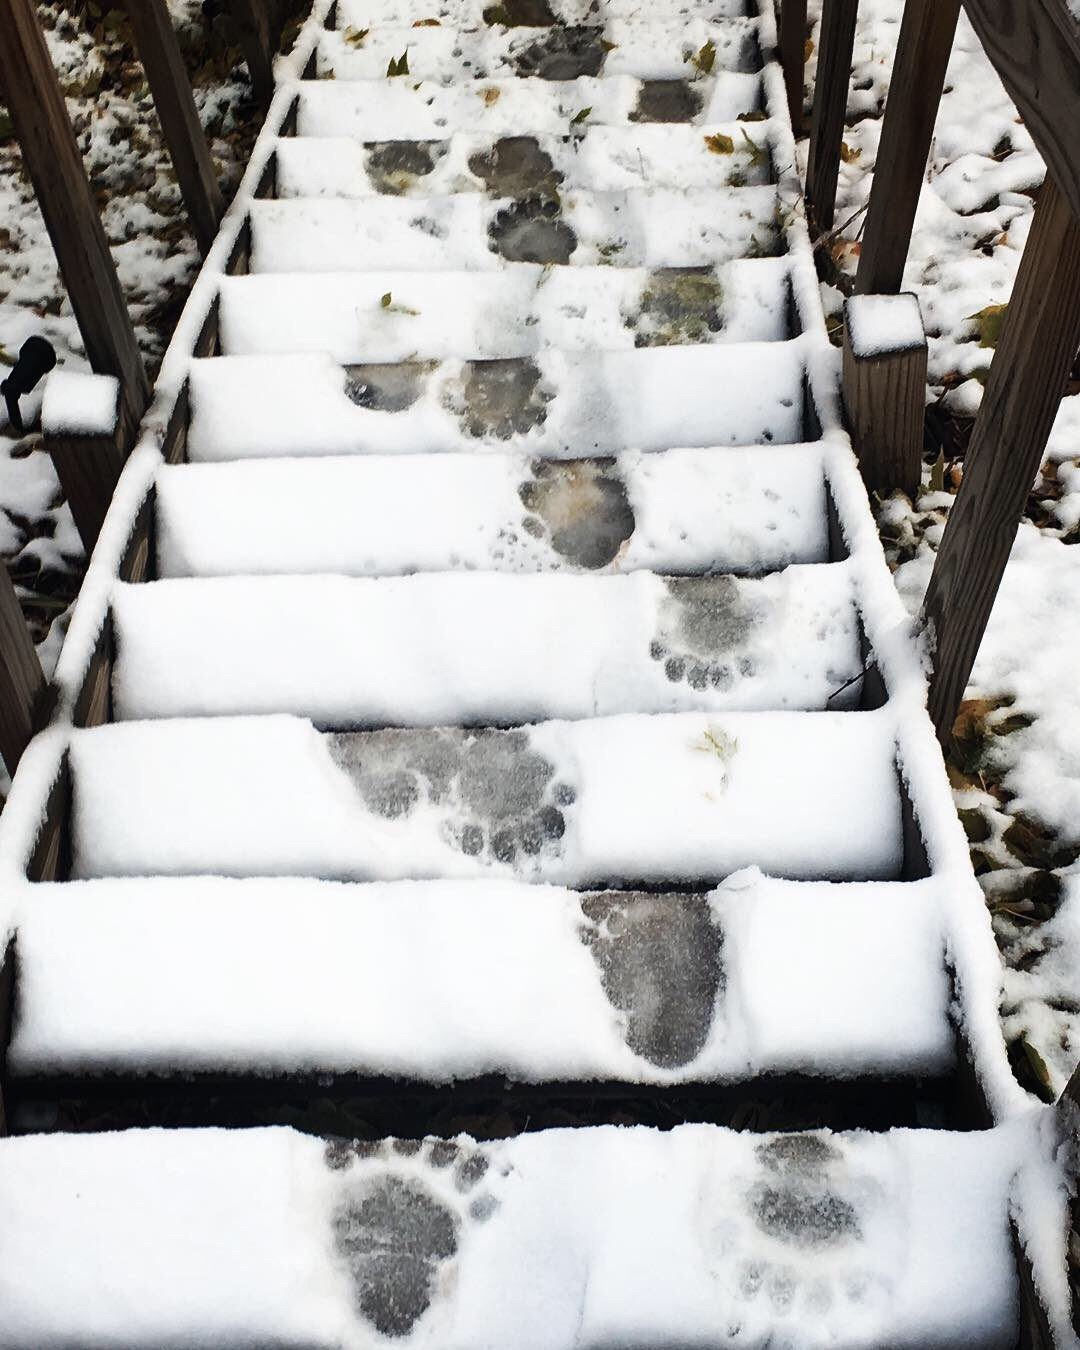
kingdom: Animalia
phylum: Chordata
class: Mammalia
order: Carnivora
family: Ursidae
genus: Ursus
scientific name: Ursus americanus
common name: American black bear
